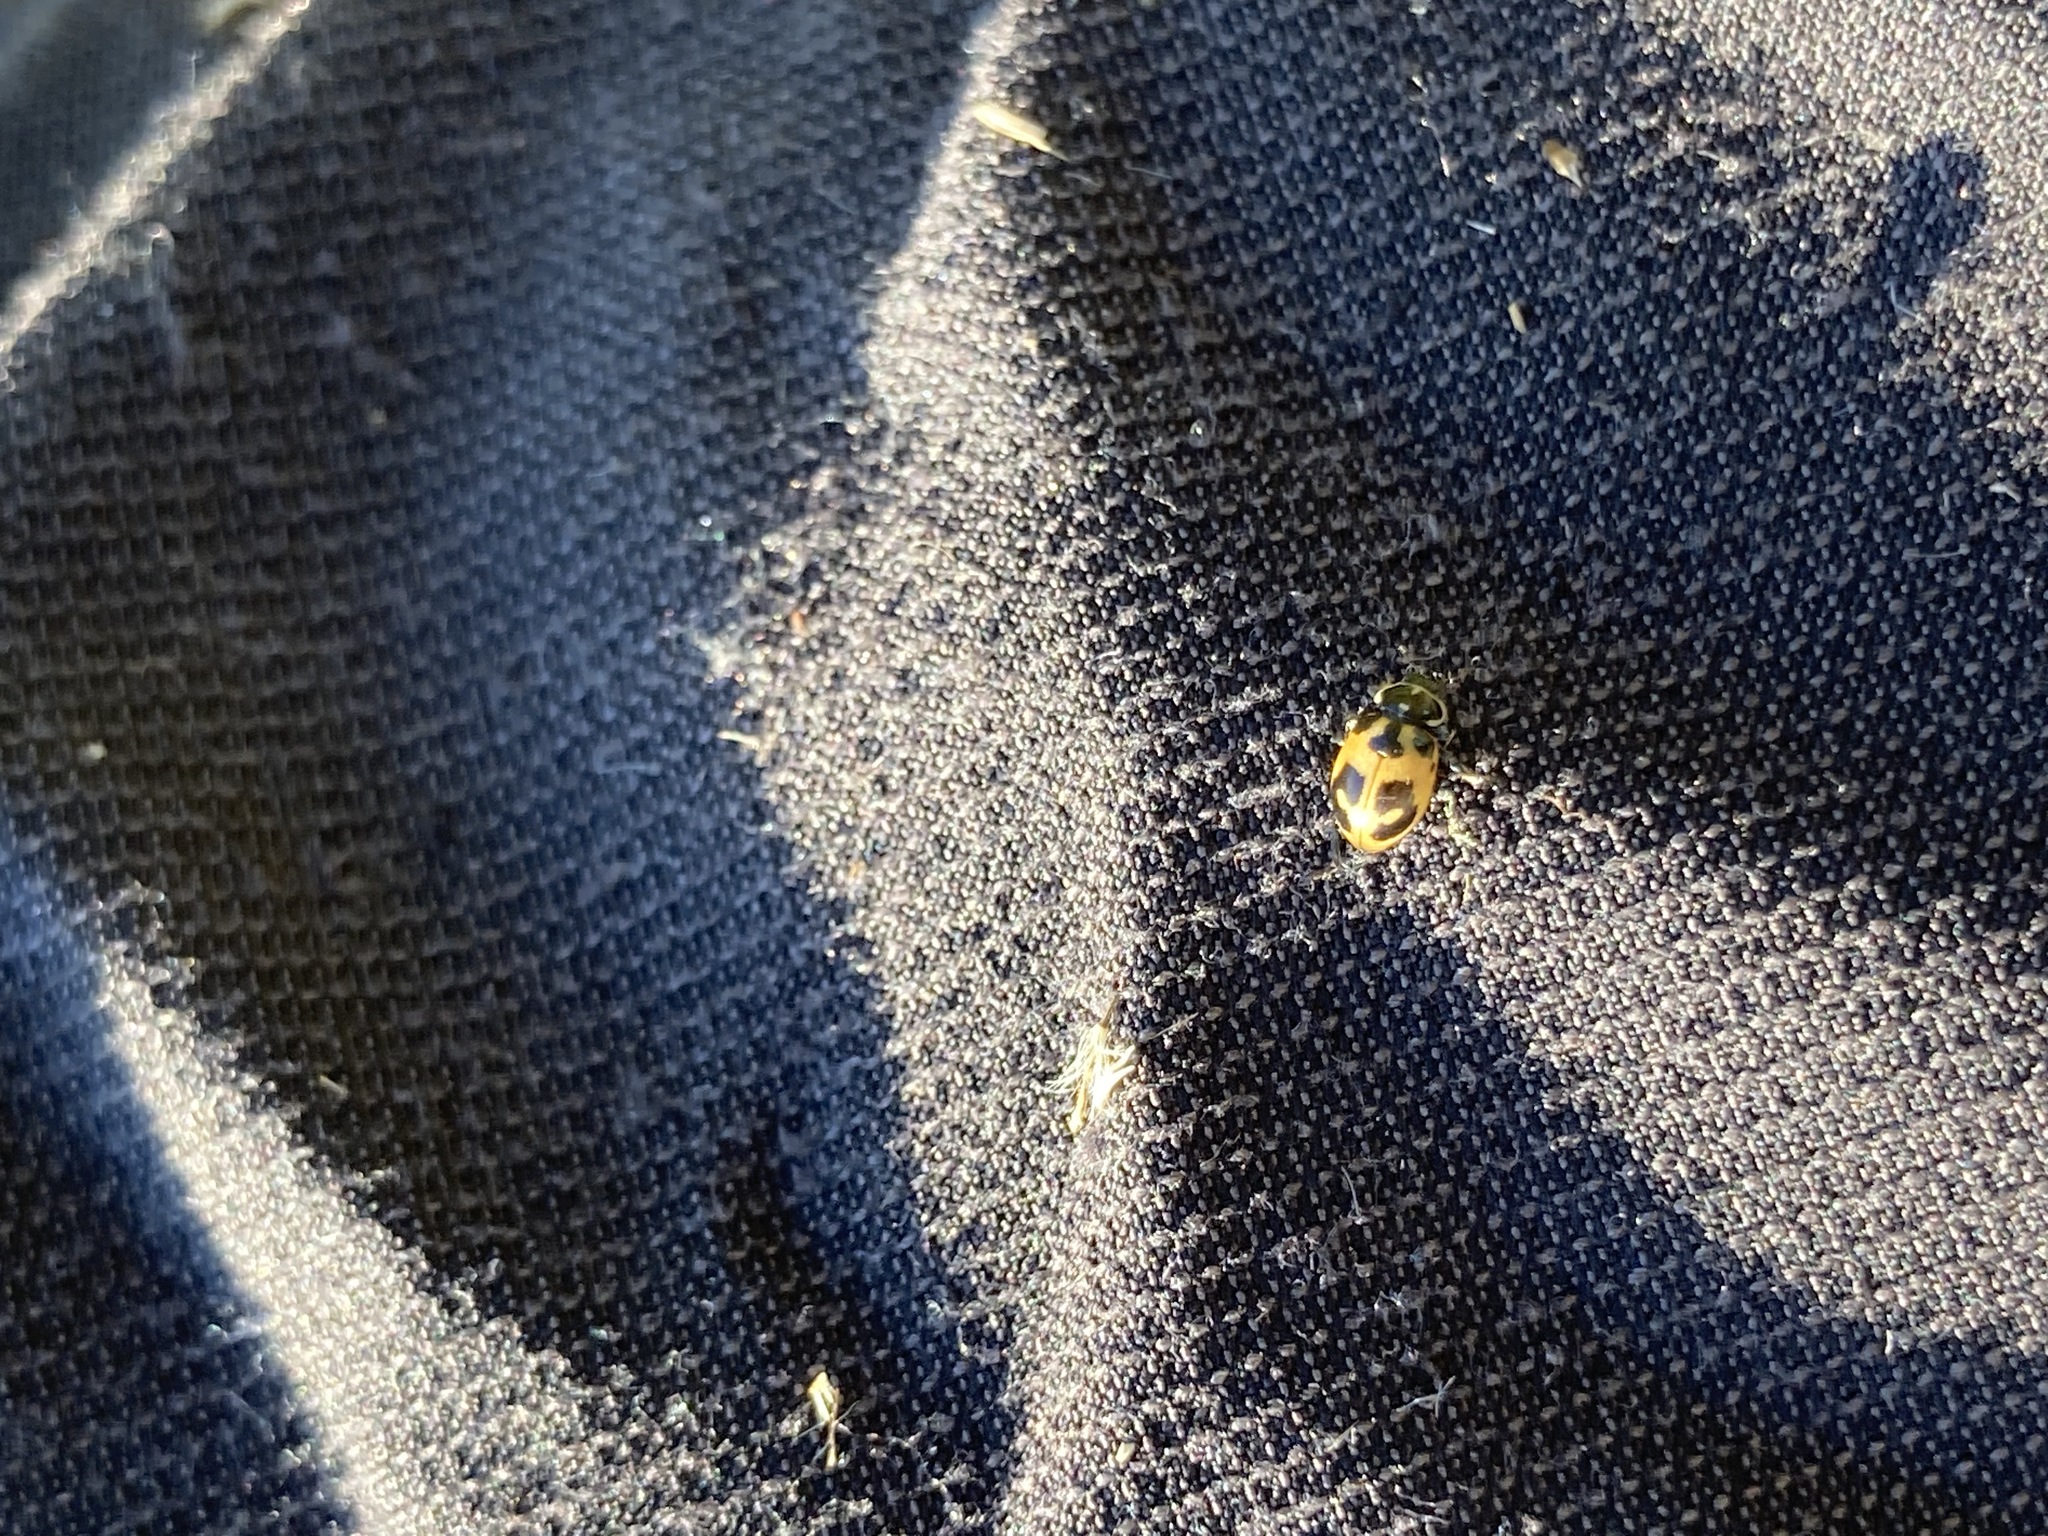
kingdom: Animalia
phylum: Arthropoda
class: Insecta
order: Coleoptera
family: Coccinellidae
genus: Hippodamia
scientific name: Hippodamia parenthesis
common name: Parenthesis lady beetle
